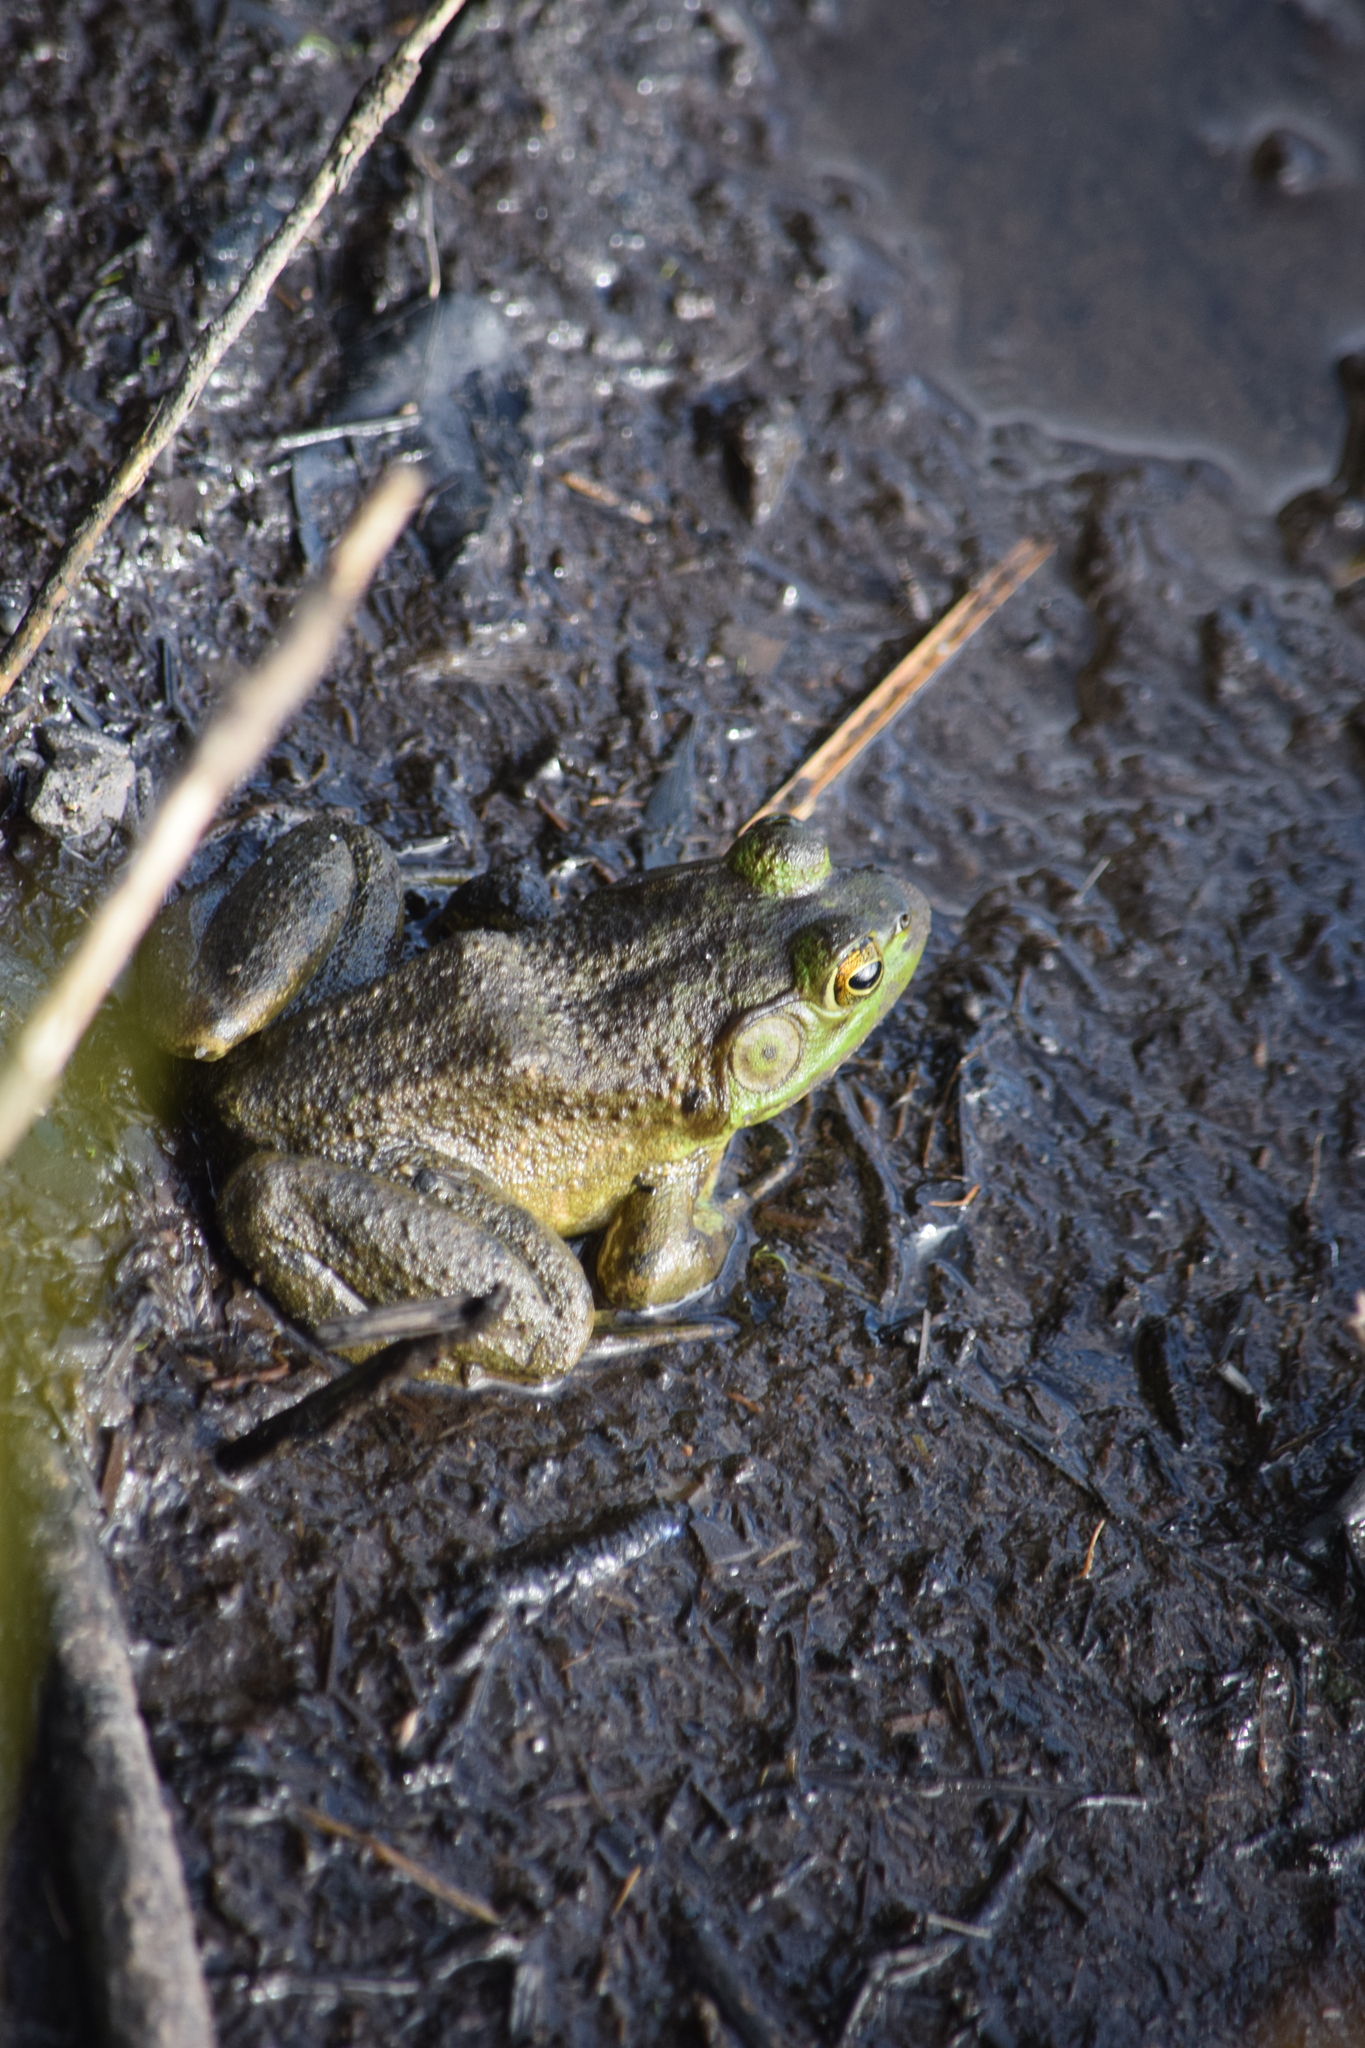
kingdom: Animalia
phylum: Chordata
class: Amphibia
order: Anura
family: Ranidae
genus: Lithobates
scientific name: Lithobates catesbeianus
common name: American bullfrog
